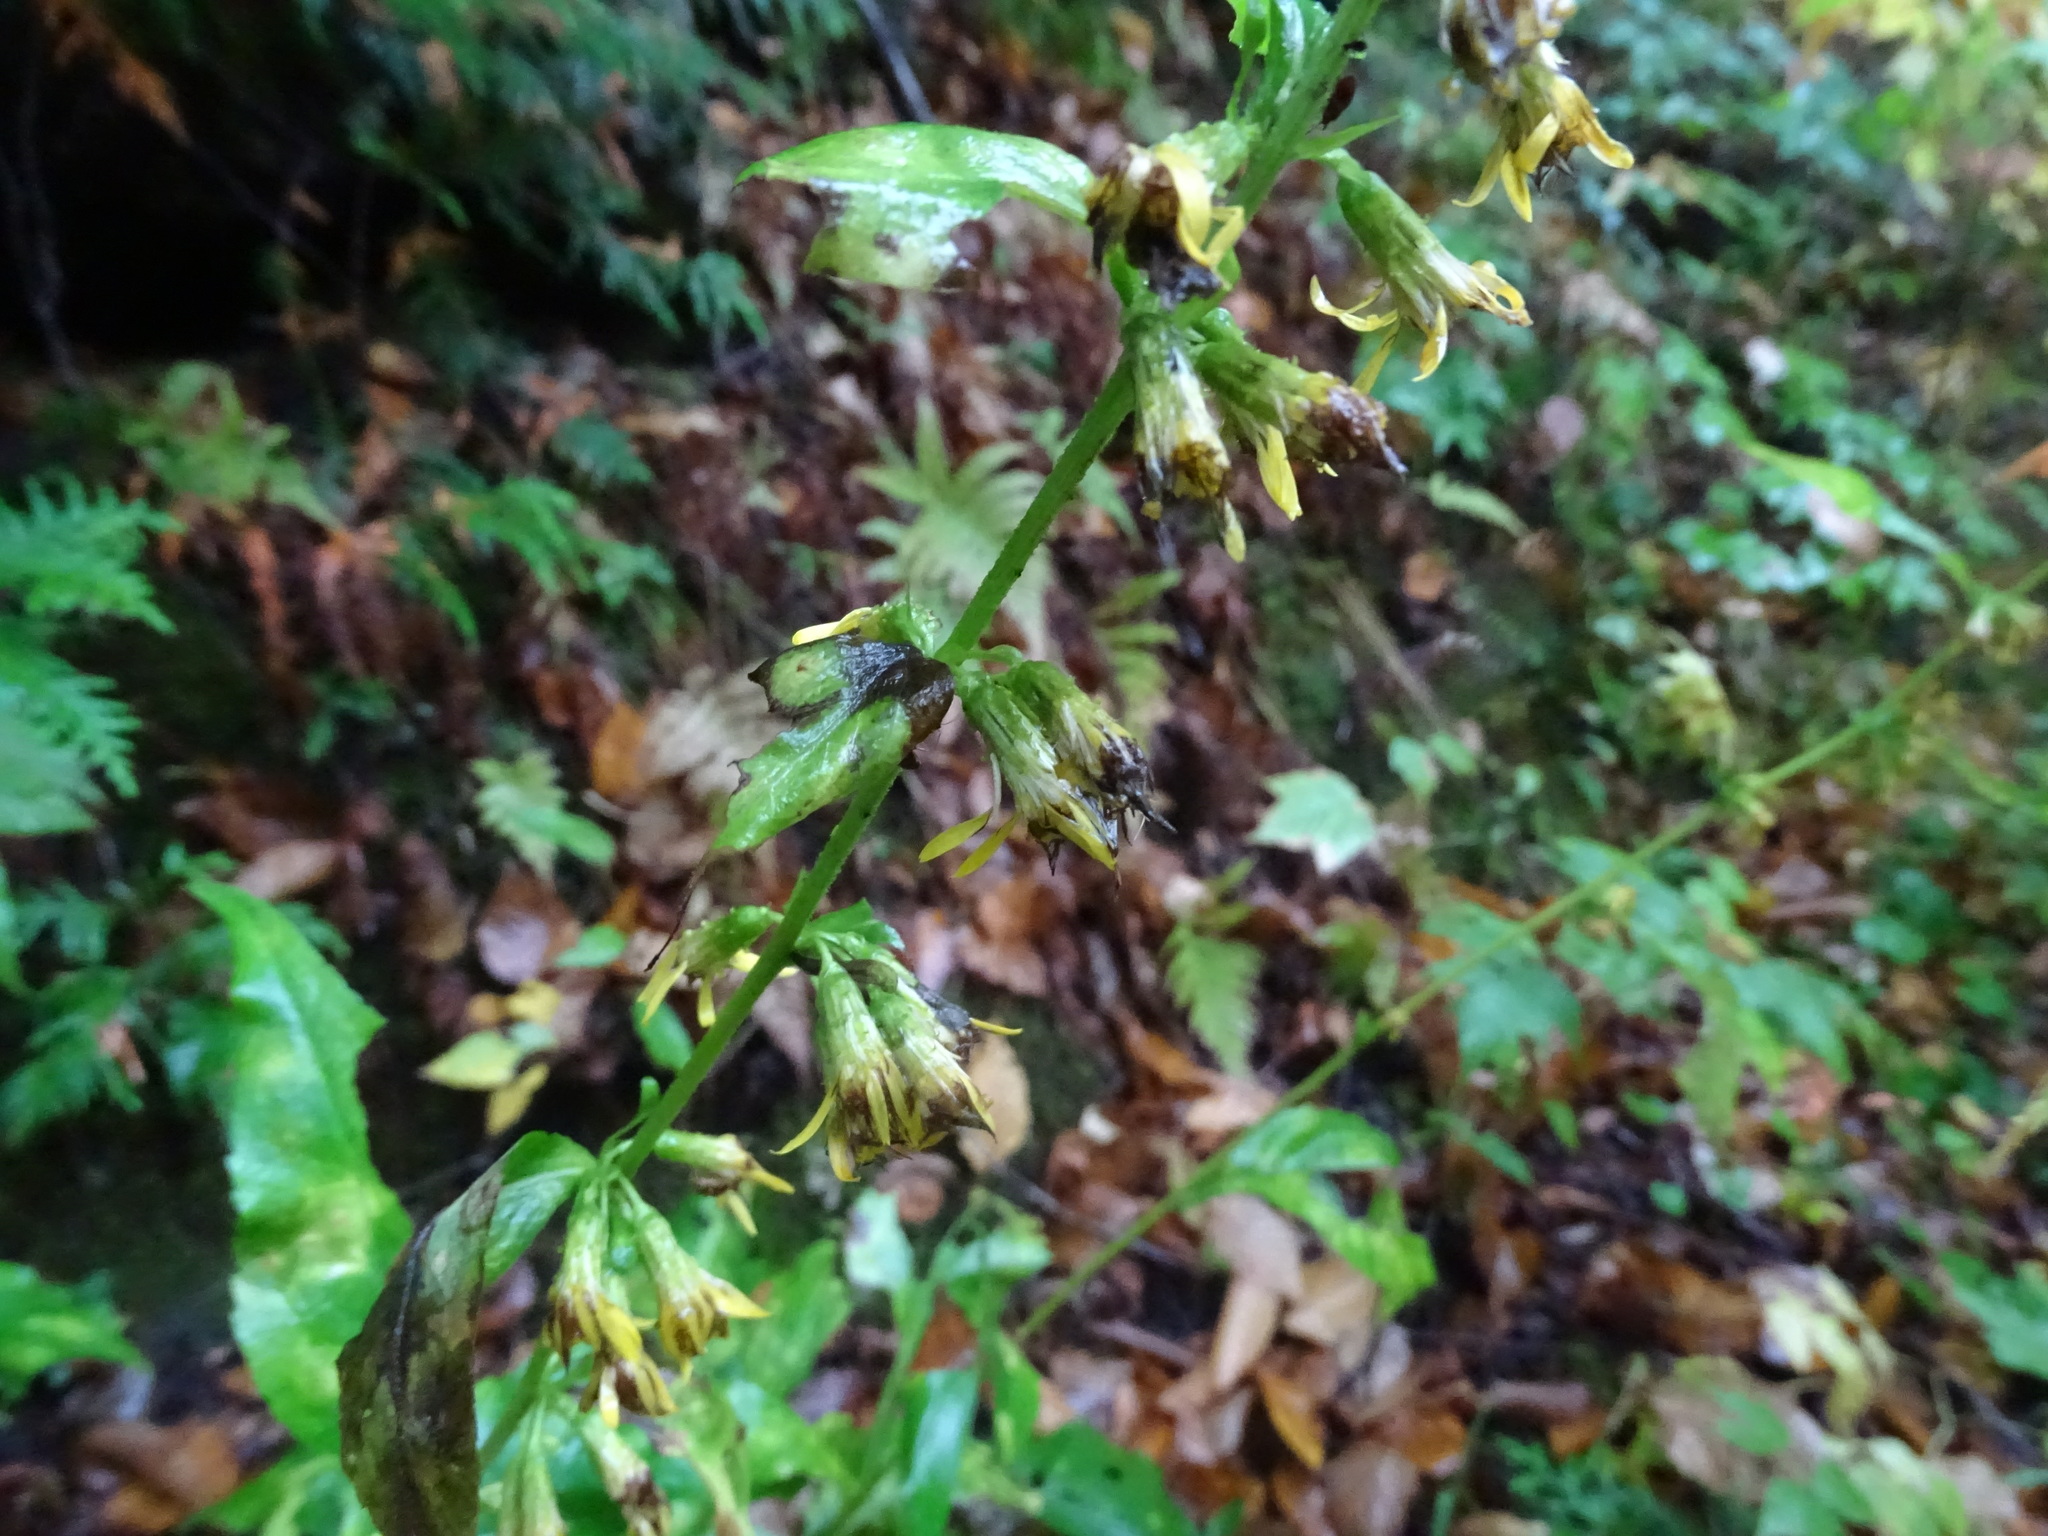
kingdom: Plantae
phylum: Tracheophyta
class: Magnoliopsida
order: Asterales
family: Asteraceae
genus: Solidago
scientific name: Solidago macrophylla
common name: Large-leaved goldenrod
